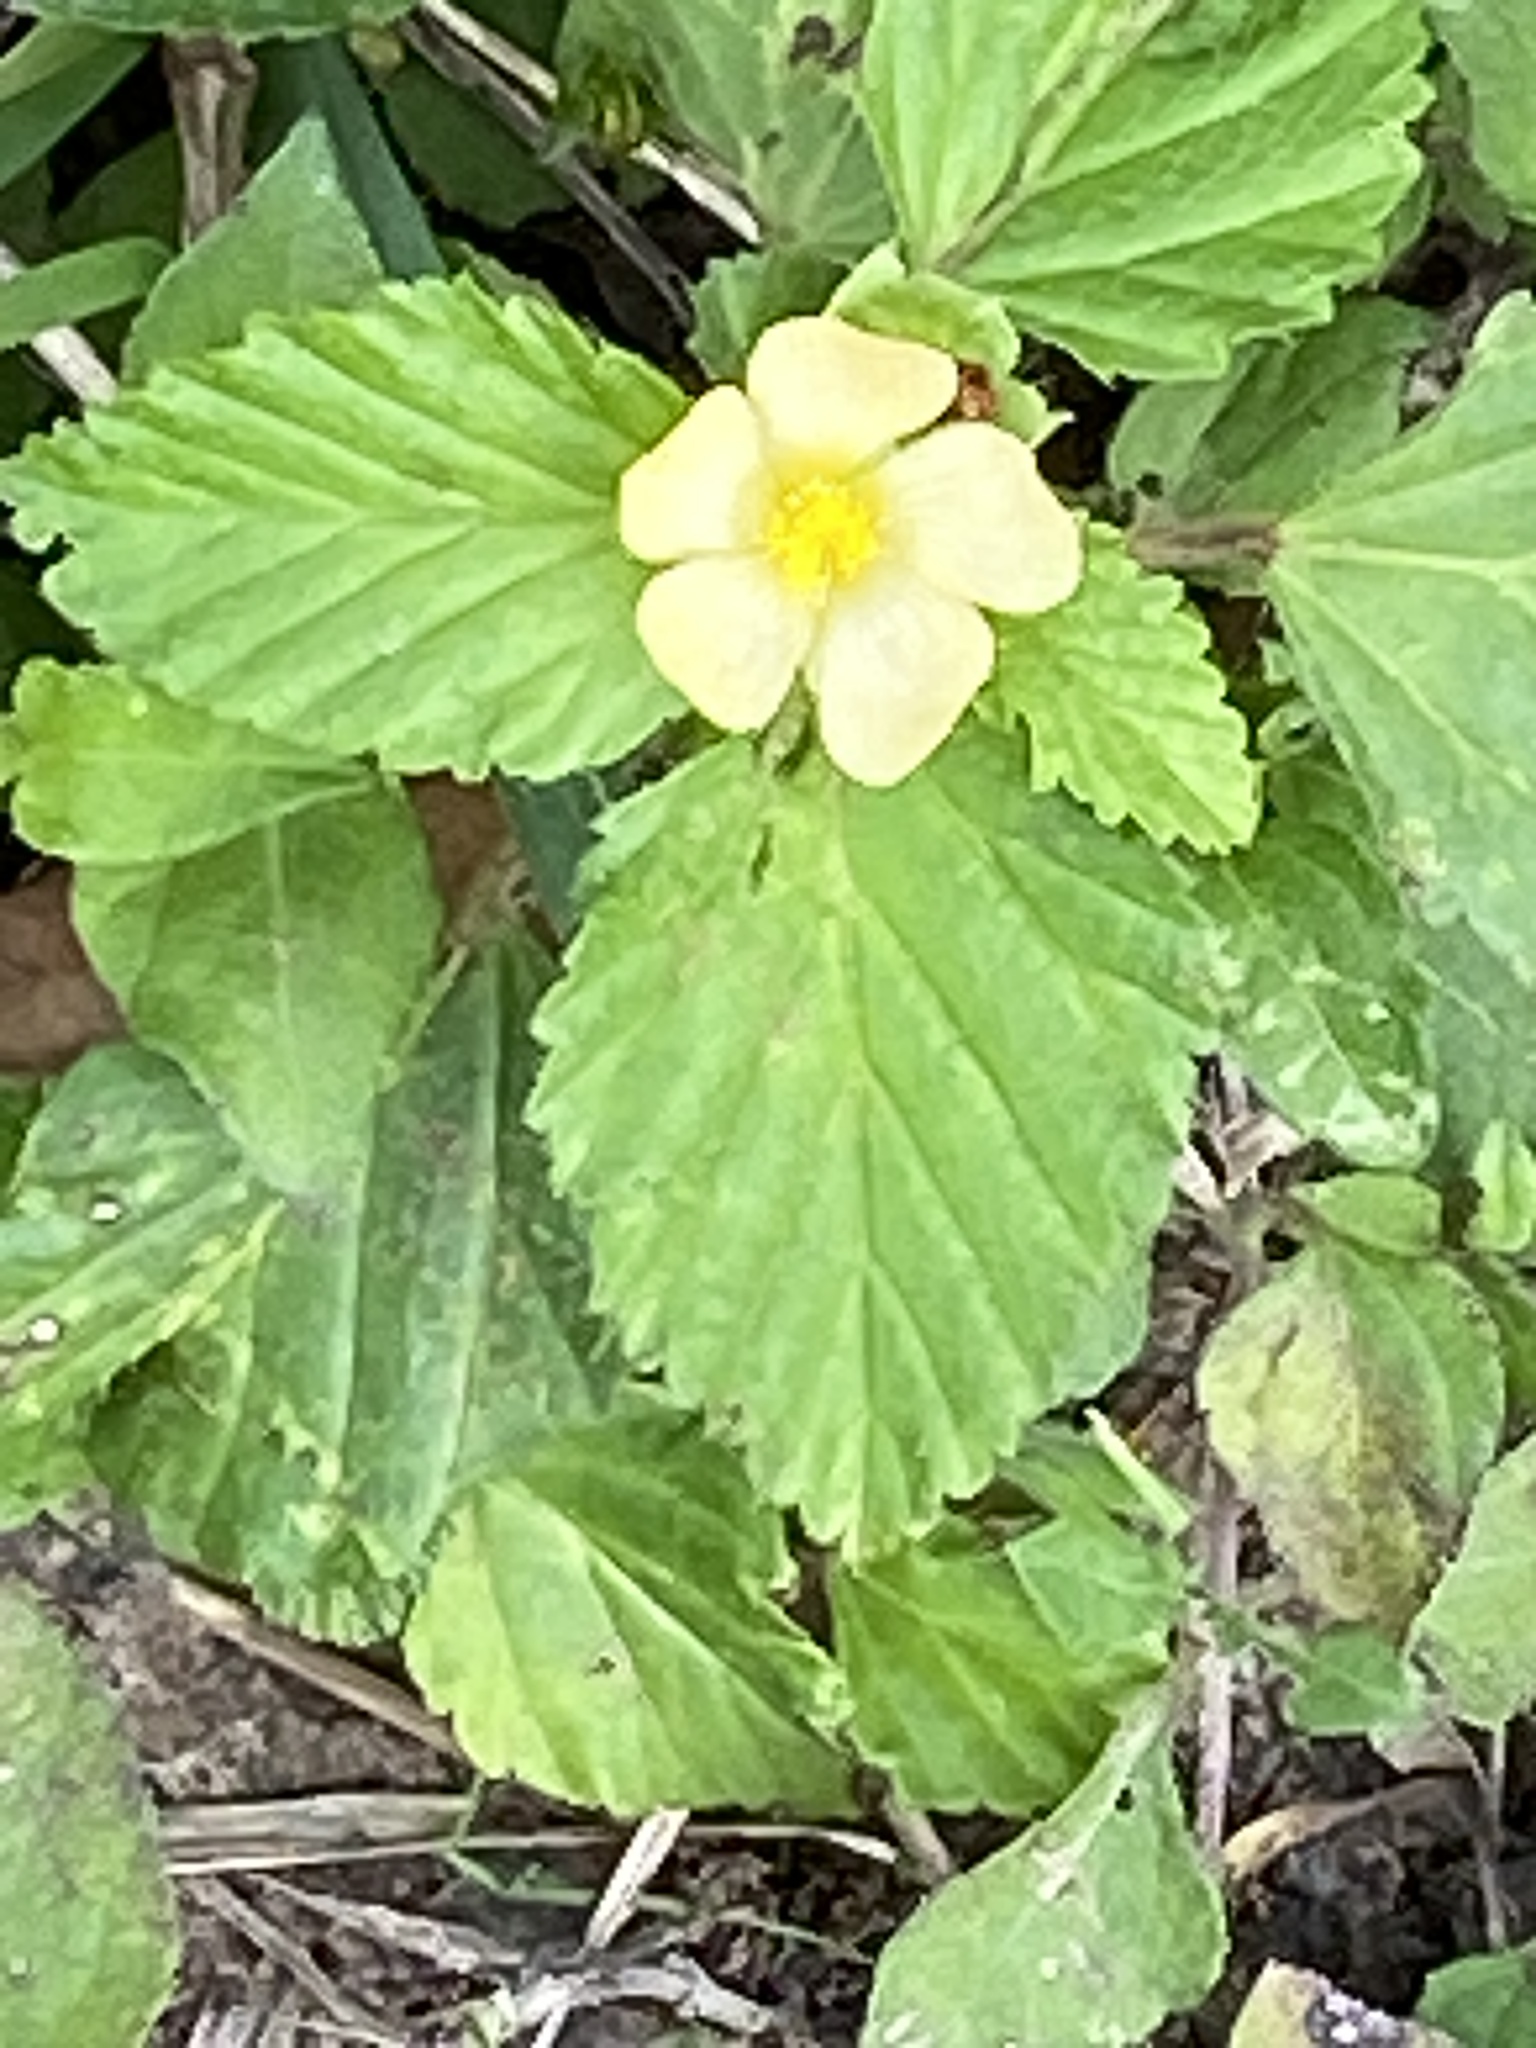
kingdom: Plantae
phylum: Tracheophyta
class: Magnoliopsida
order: Malvales
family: Malvaceae
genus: Malvastrum
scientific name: Malvastrum coromandelianum
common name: Threelobe false mallow
